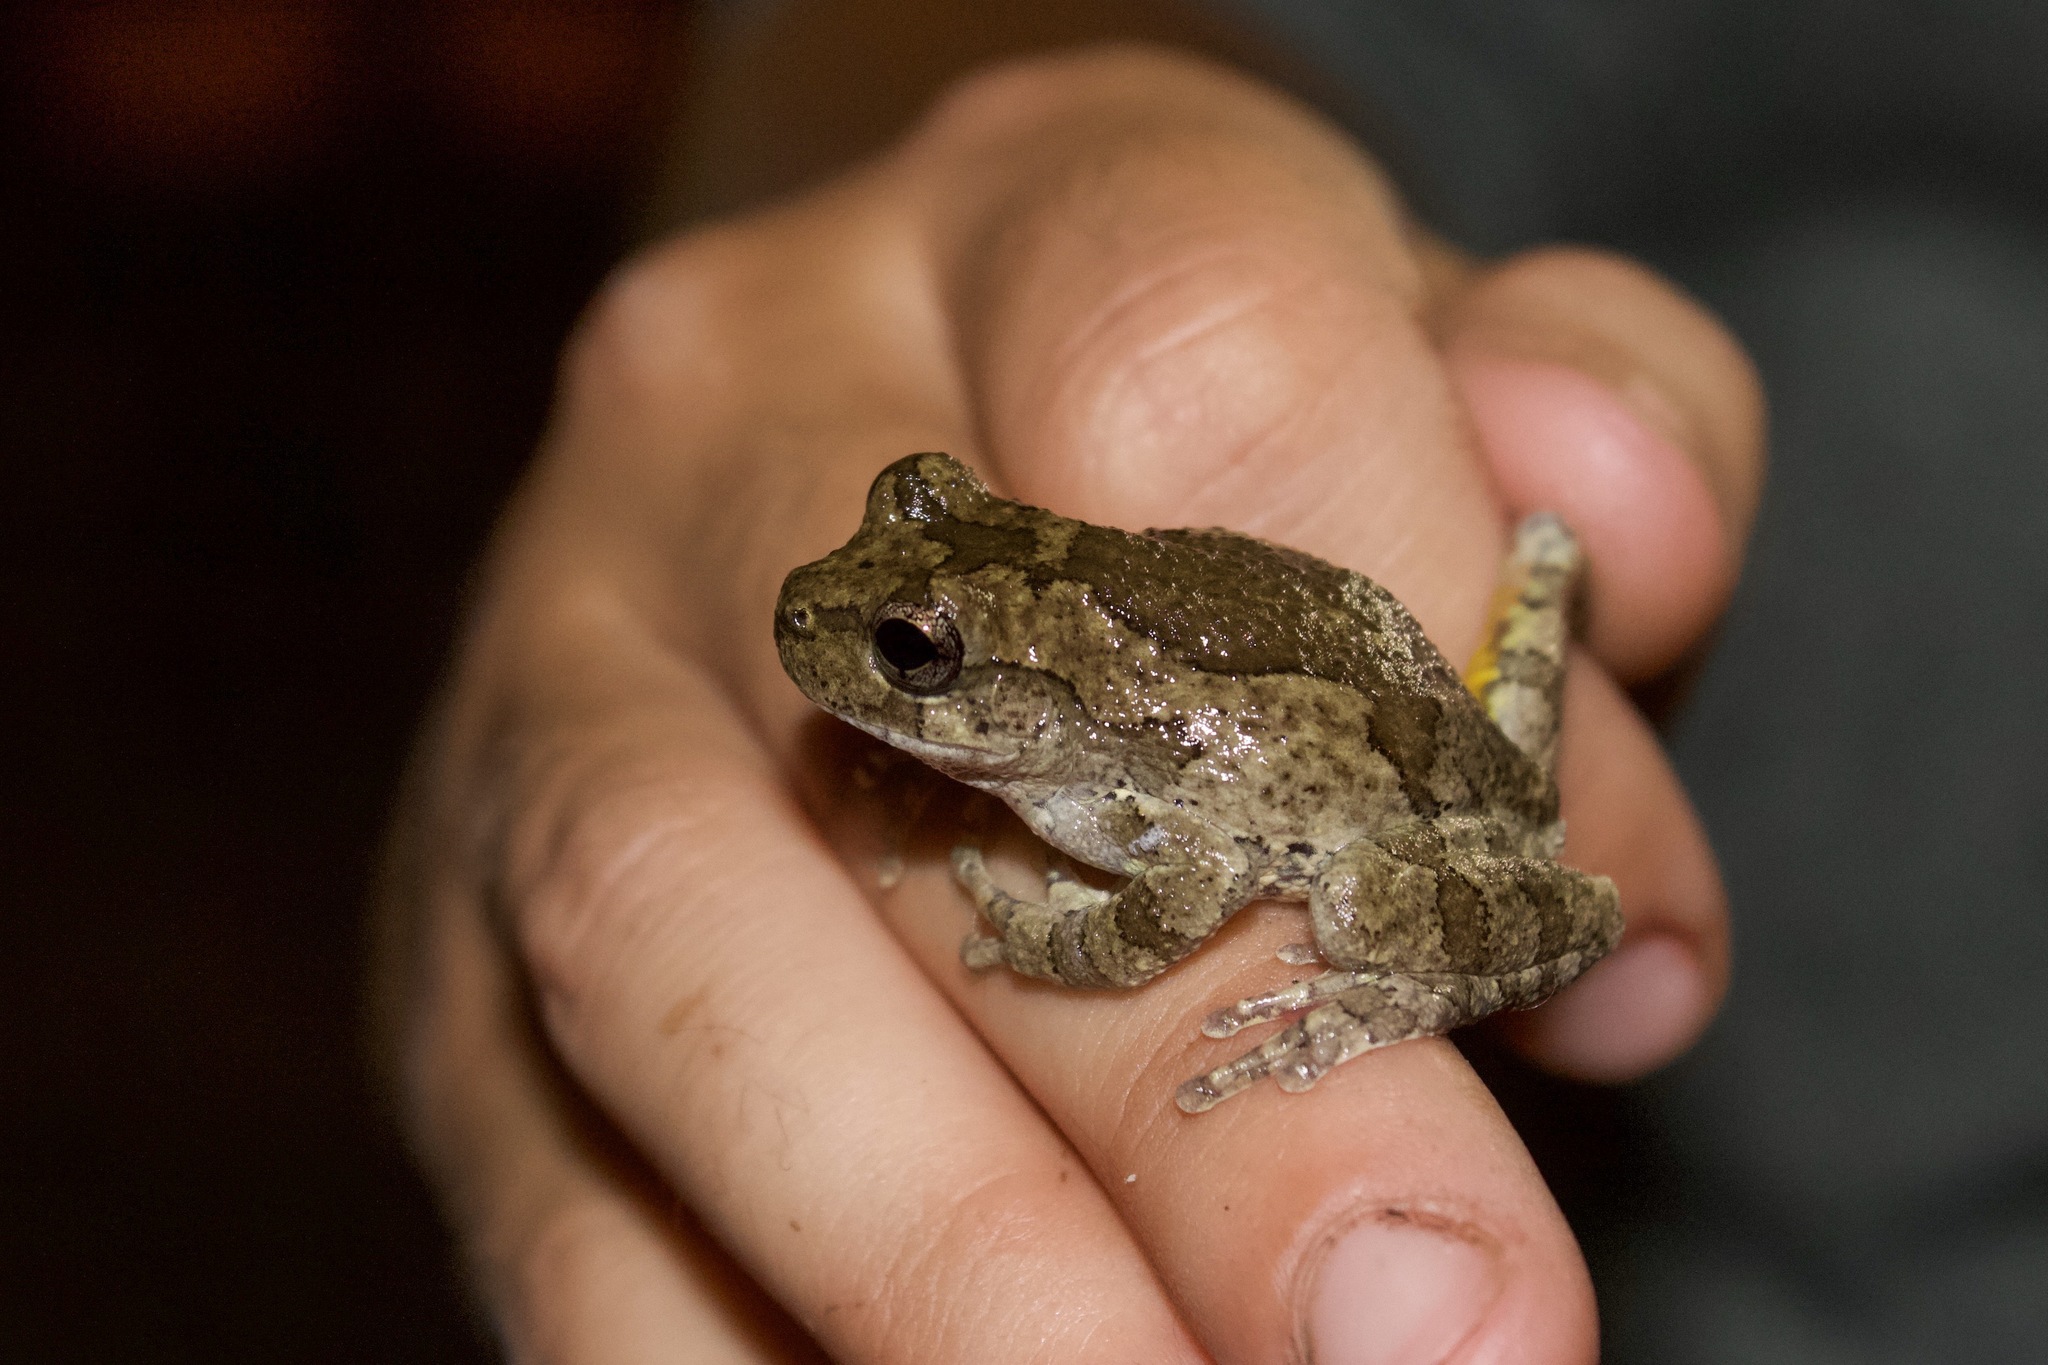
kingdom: Animalia
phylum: Chordata
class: Amphibia
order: Anura
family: Hylidae
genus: Dryophytes
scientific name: Dryophytes chrysoscelis
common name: Cope's gray treefrog
